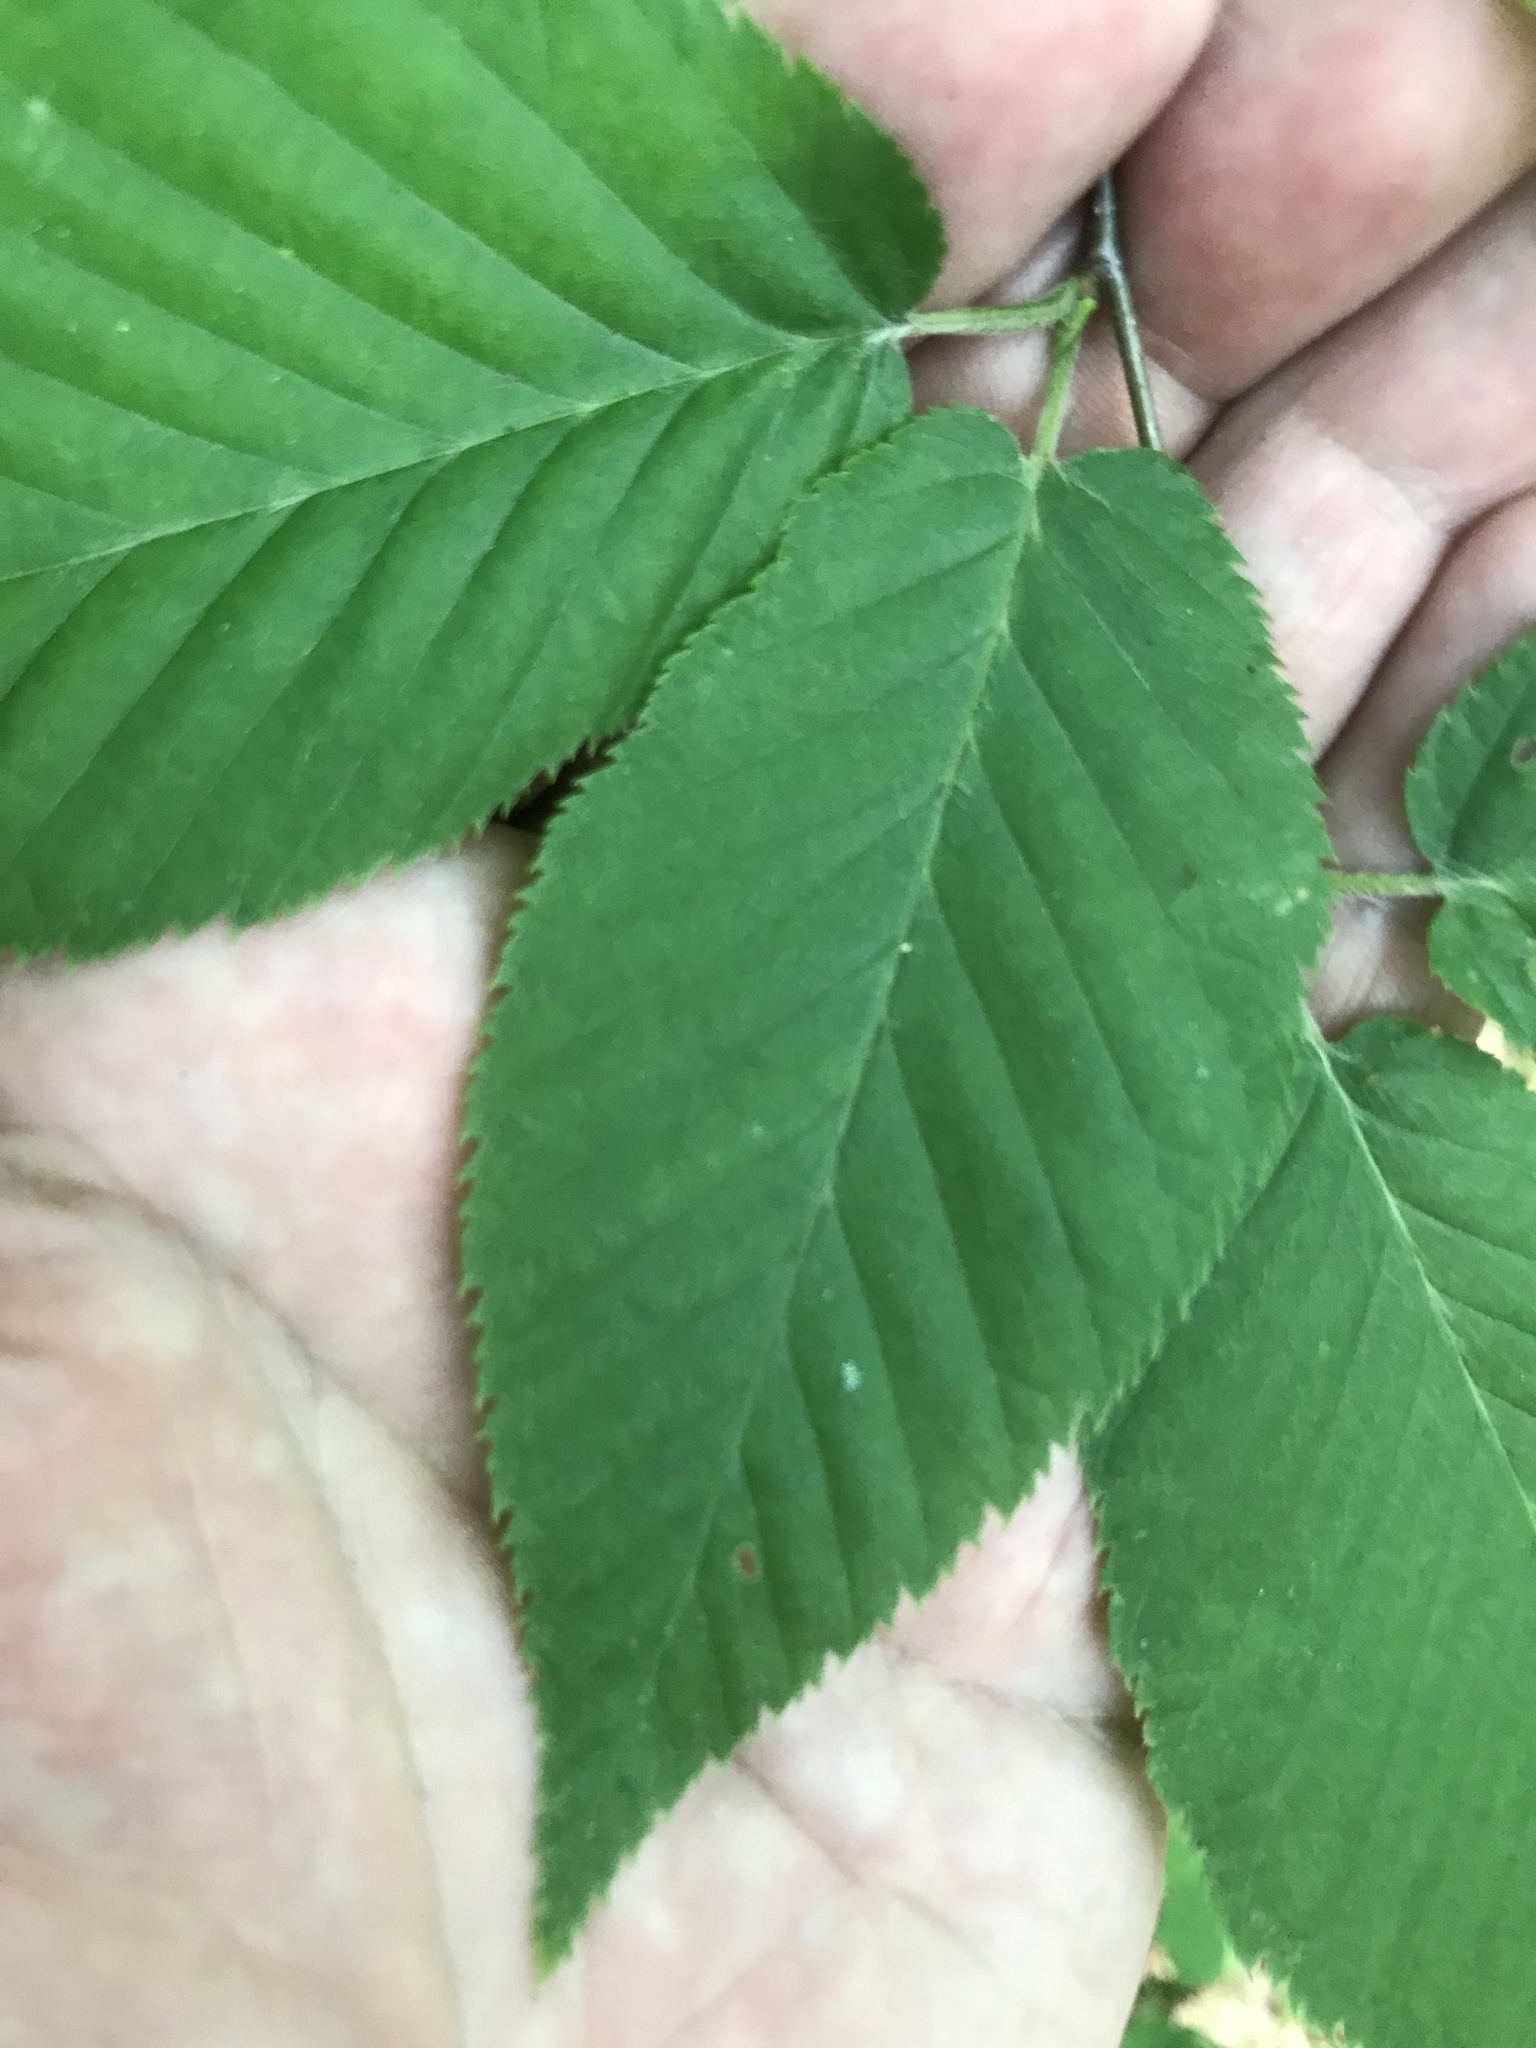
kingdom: Plantae
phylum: Tracheophyta
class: Magnoliopsida
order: Fagales
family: Betulaceae
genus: Betula
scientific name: Betula lenta
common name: Black birch
